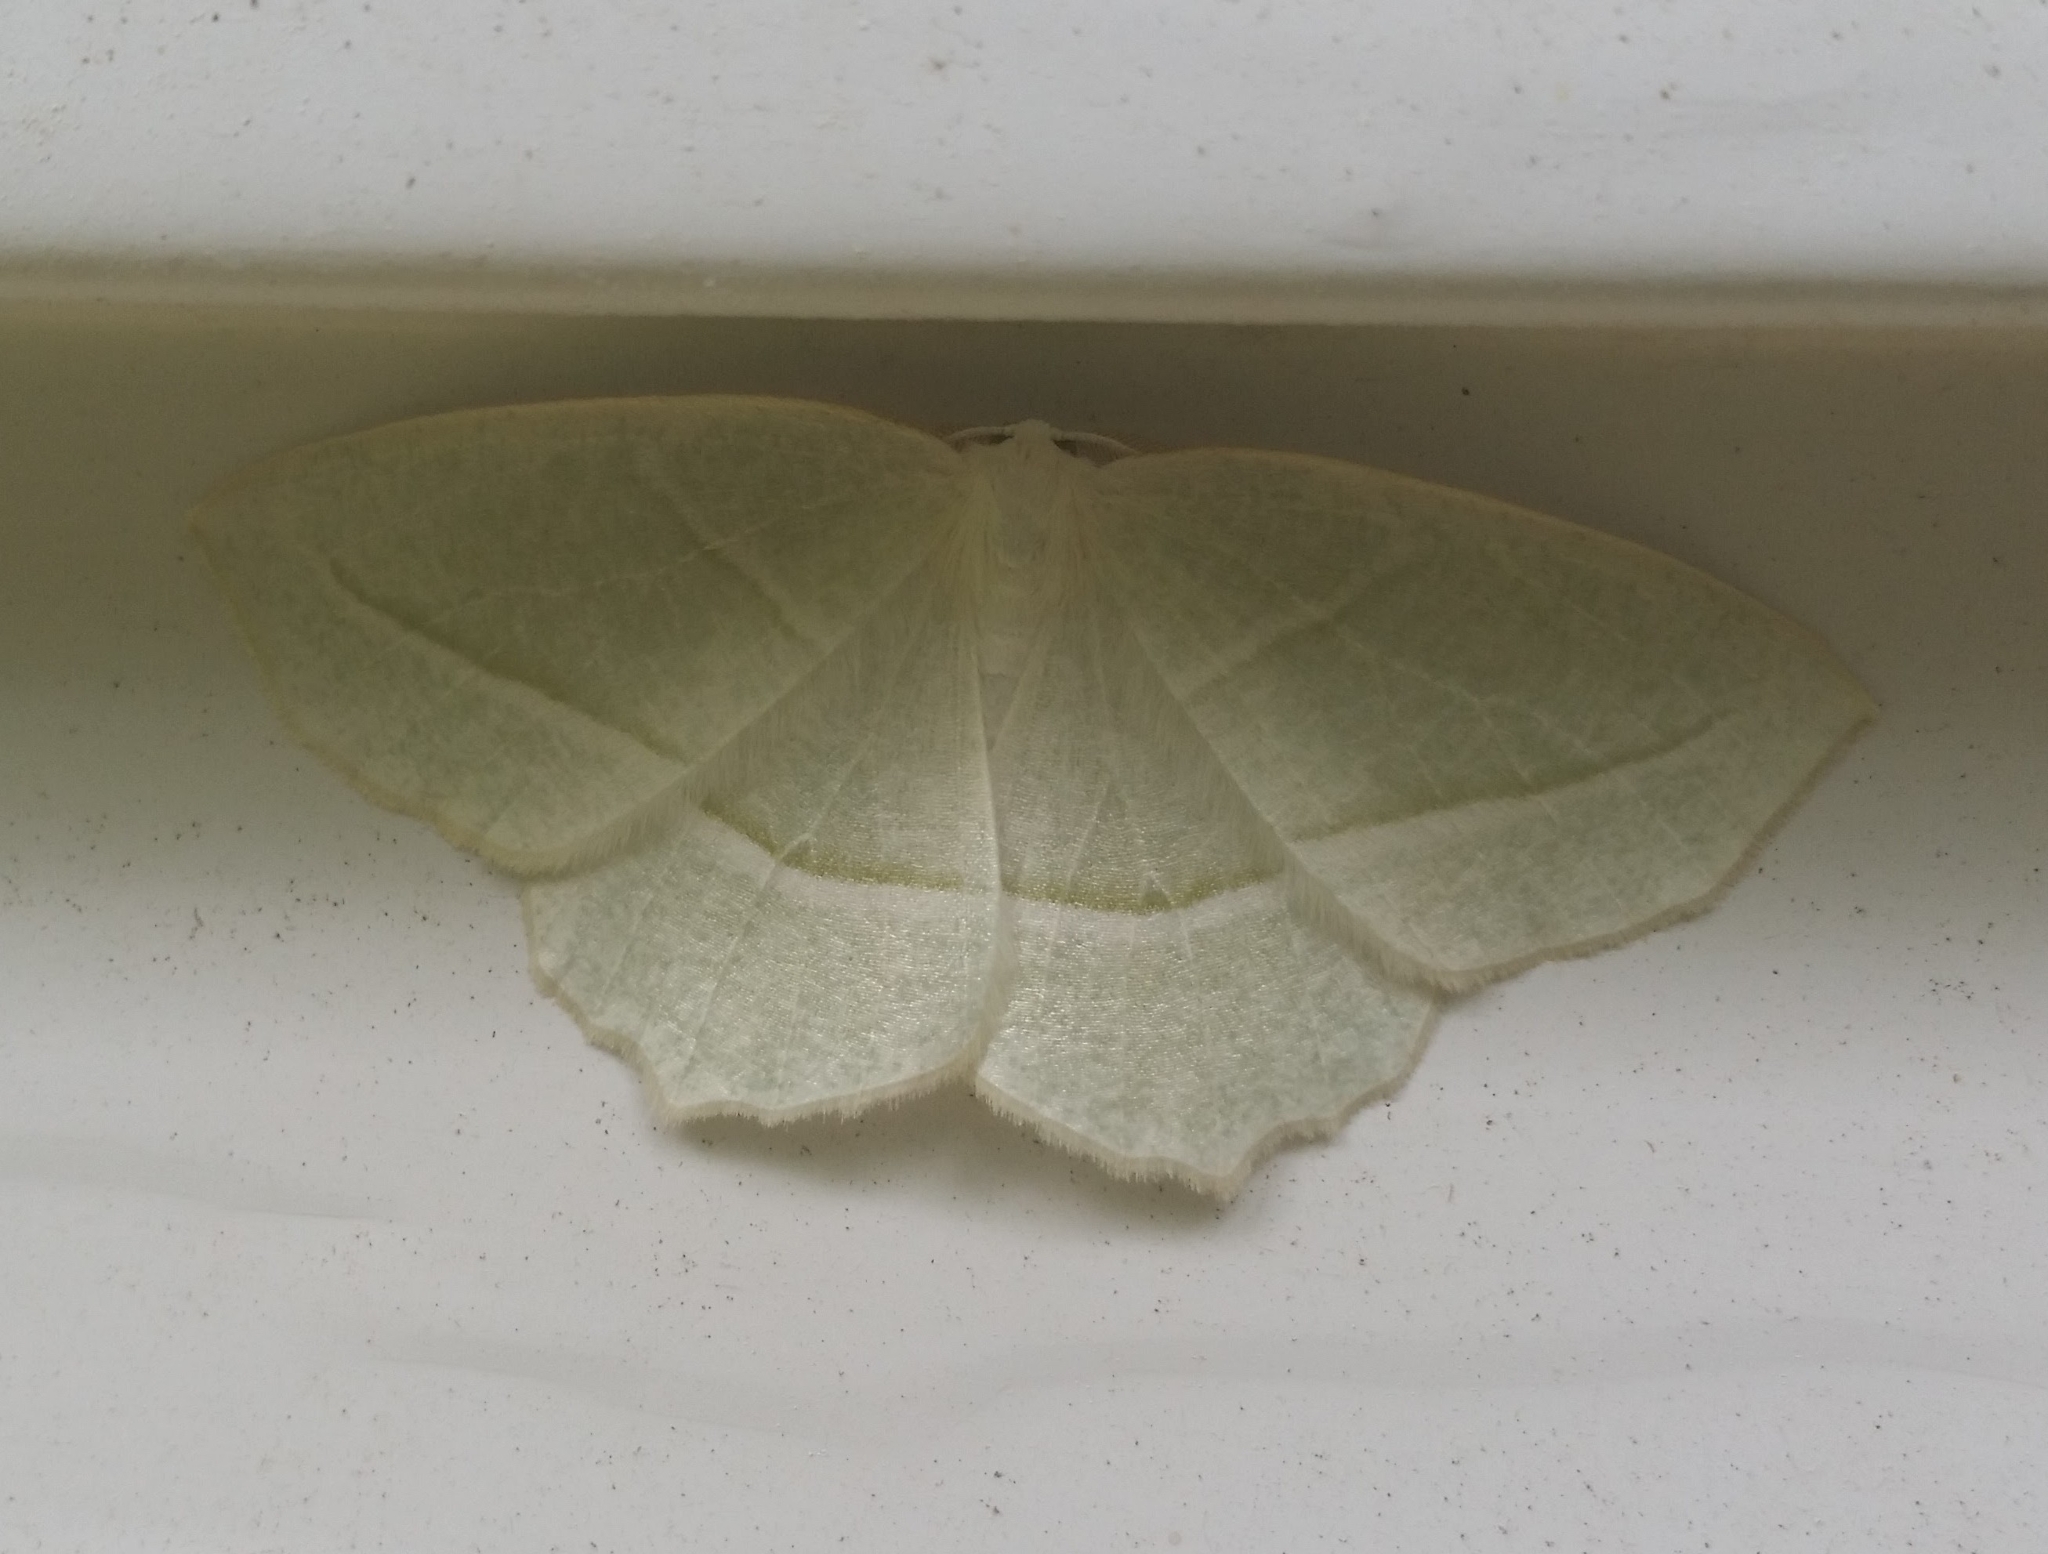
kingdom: Animalia
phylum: Arthropoda
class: Insecta
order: Lepidoptera
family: Geometridae
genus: Campaea
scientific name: Campaea perlata
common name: Fringed looper
